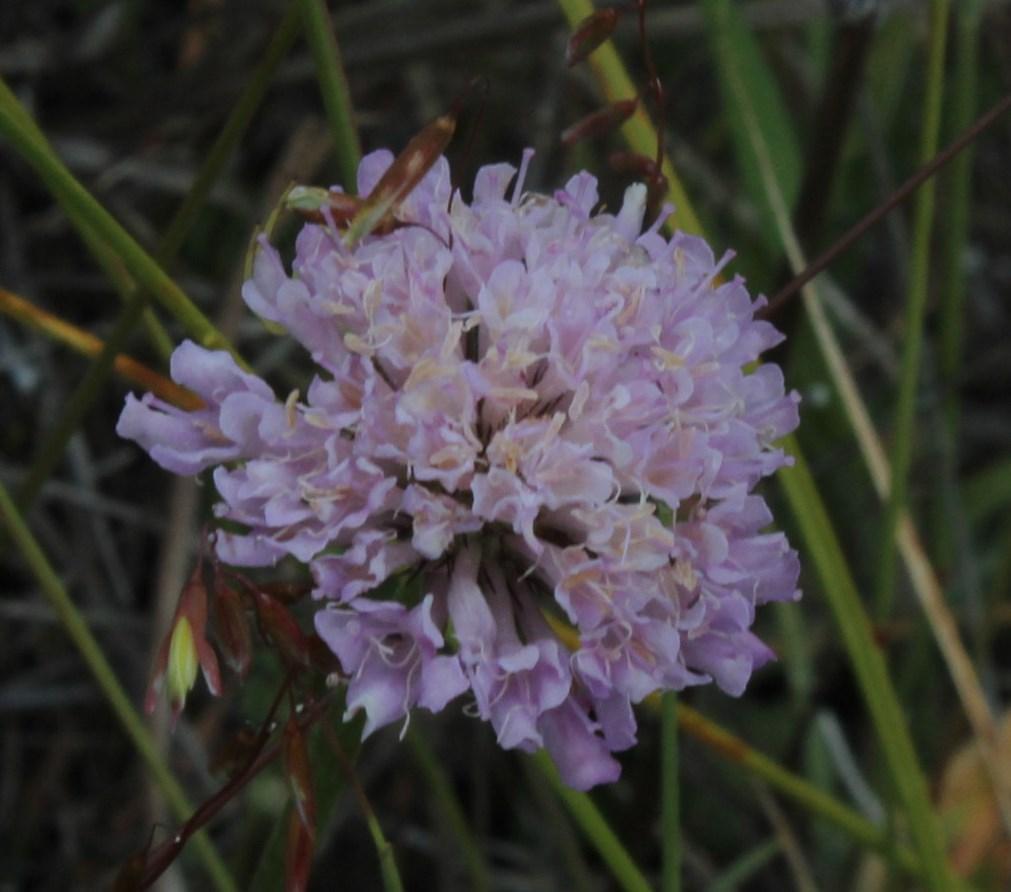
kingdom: Plantae
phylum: Tracheophyta
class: Magnoliopsida
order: Dipsacales
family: Caprifoliaceae
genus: Scabiosa
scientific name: Scabiosa columbaria
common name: Small scabious
